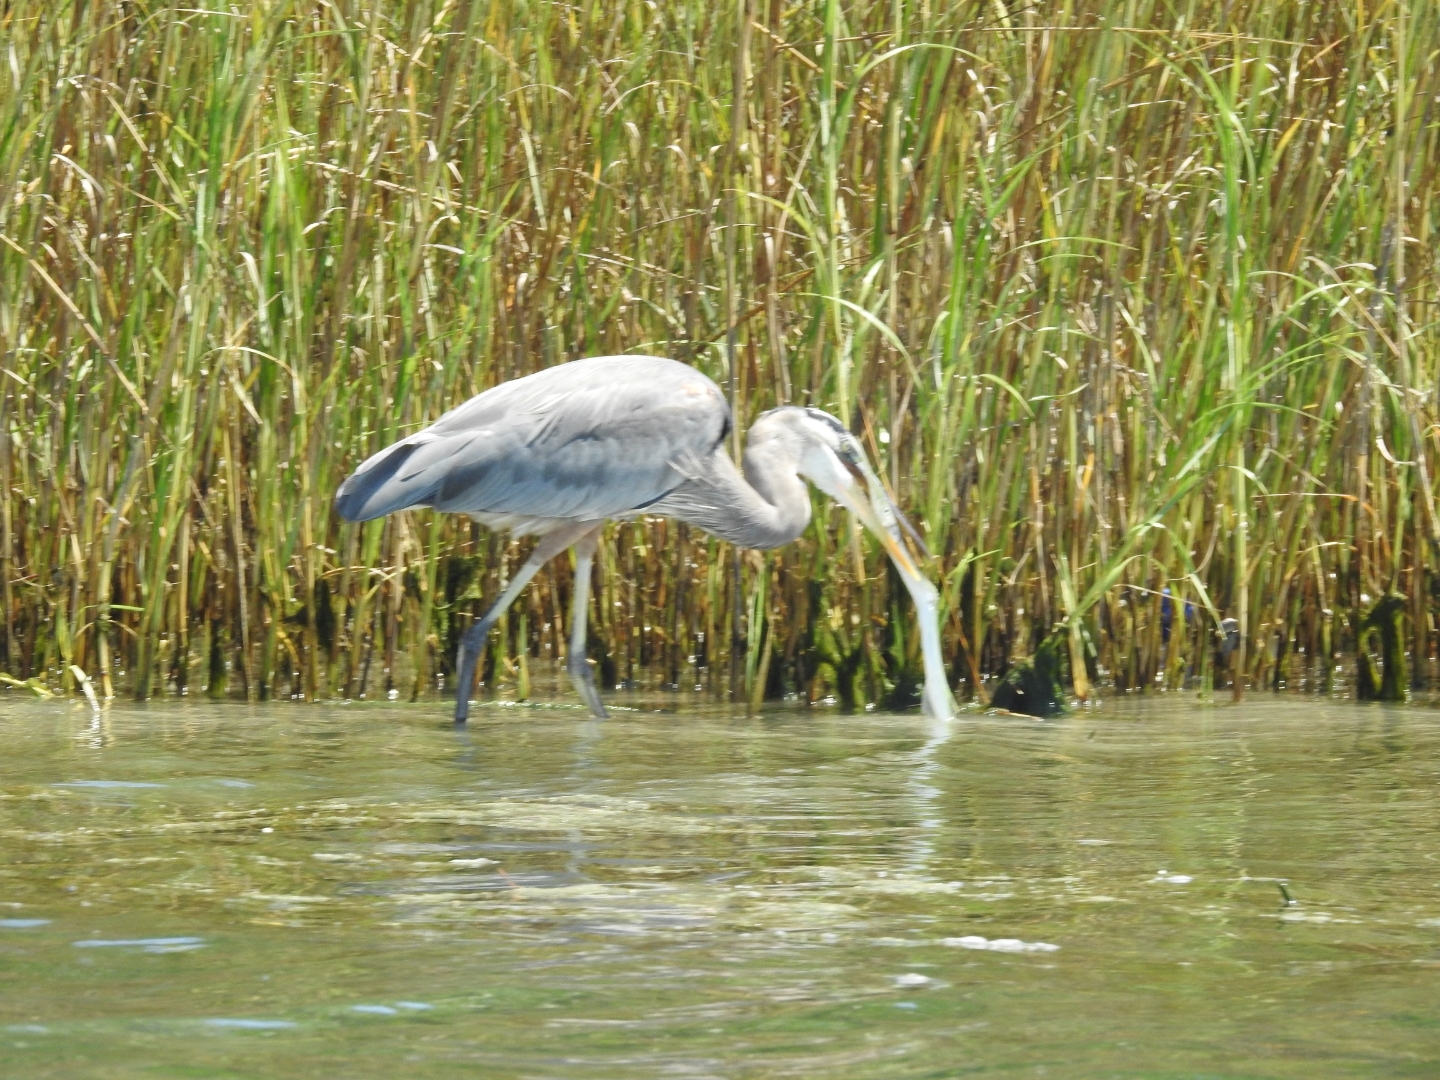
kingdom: Animalia
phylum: Chordata
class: Aves
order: Pelecaniformes
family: Ardeidae
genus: Ardea
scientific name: Ardea herodias
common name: Great blue heron
